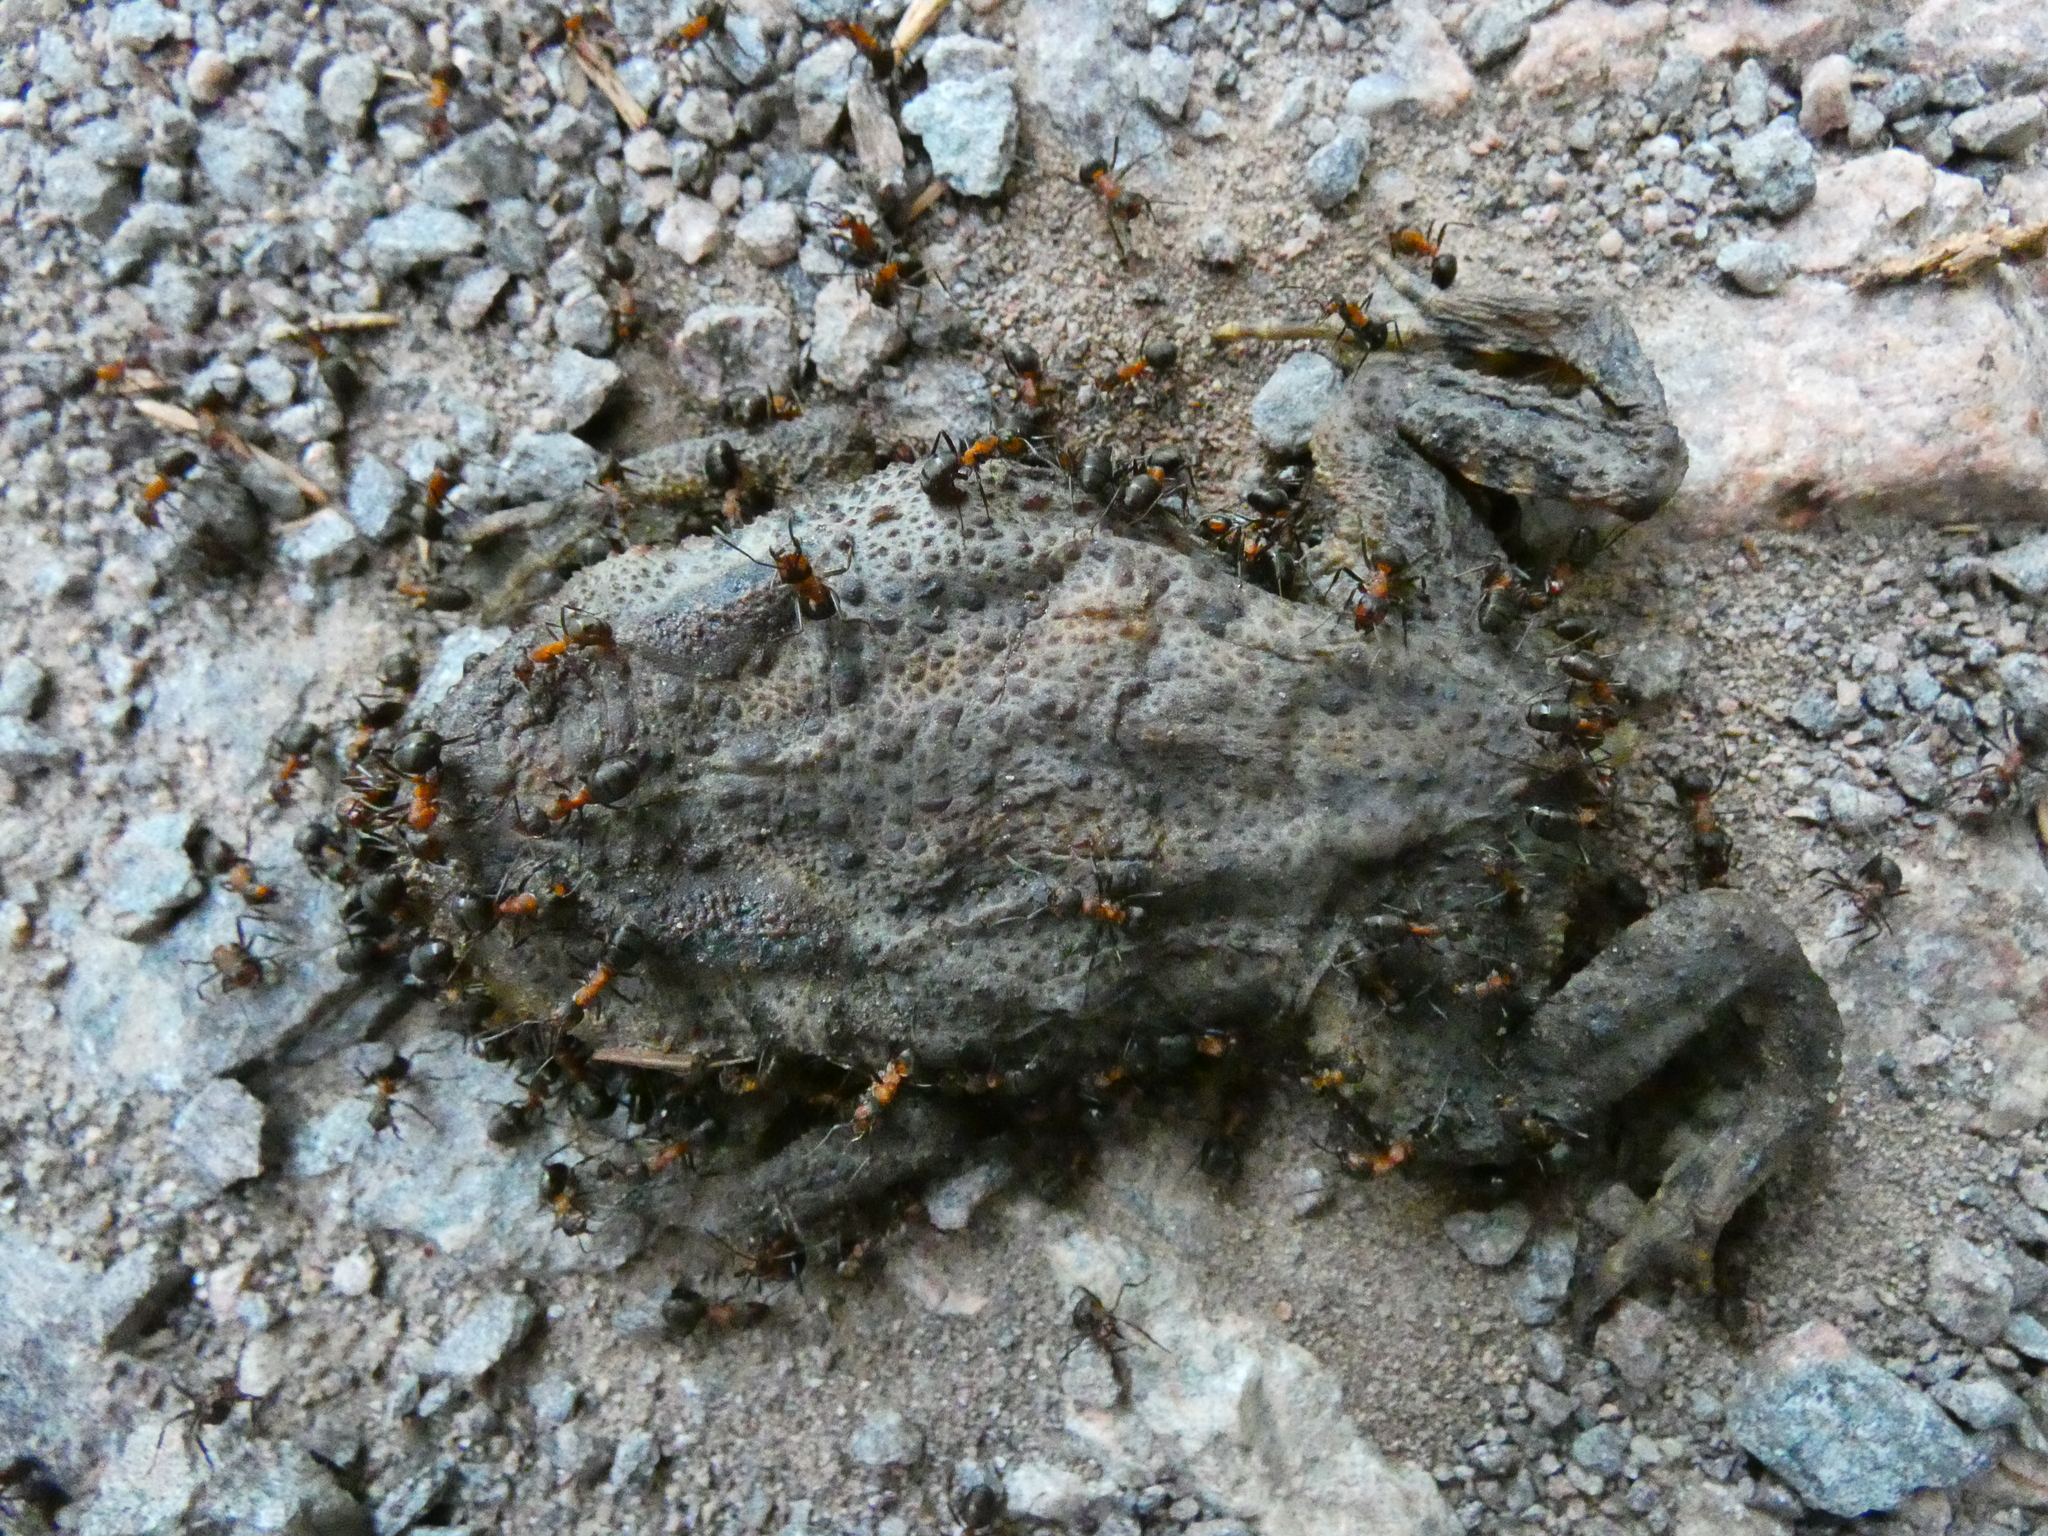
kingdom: Animalia
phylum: Chordata
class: Amphibia
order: Anura
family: Bufonidae
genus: Bufo
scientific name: Bufo bufo
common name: Common toad
